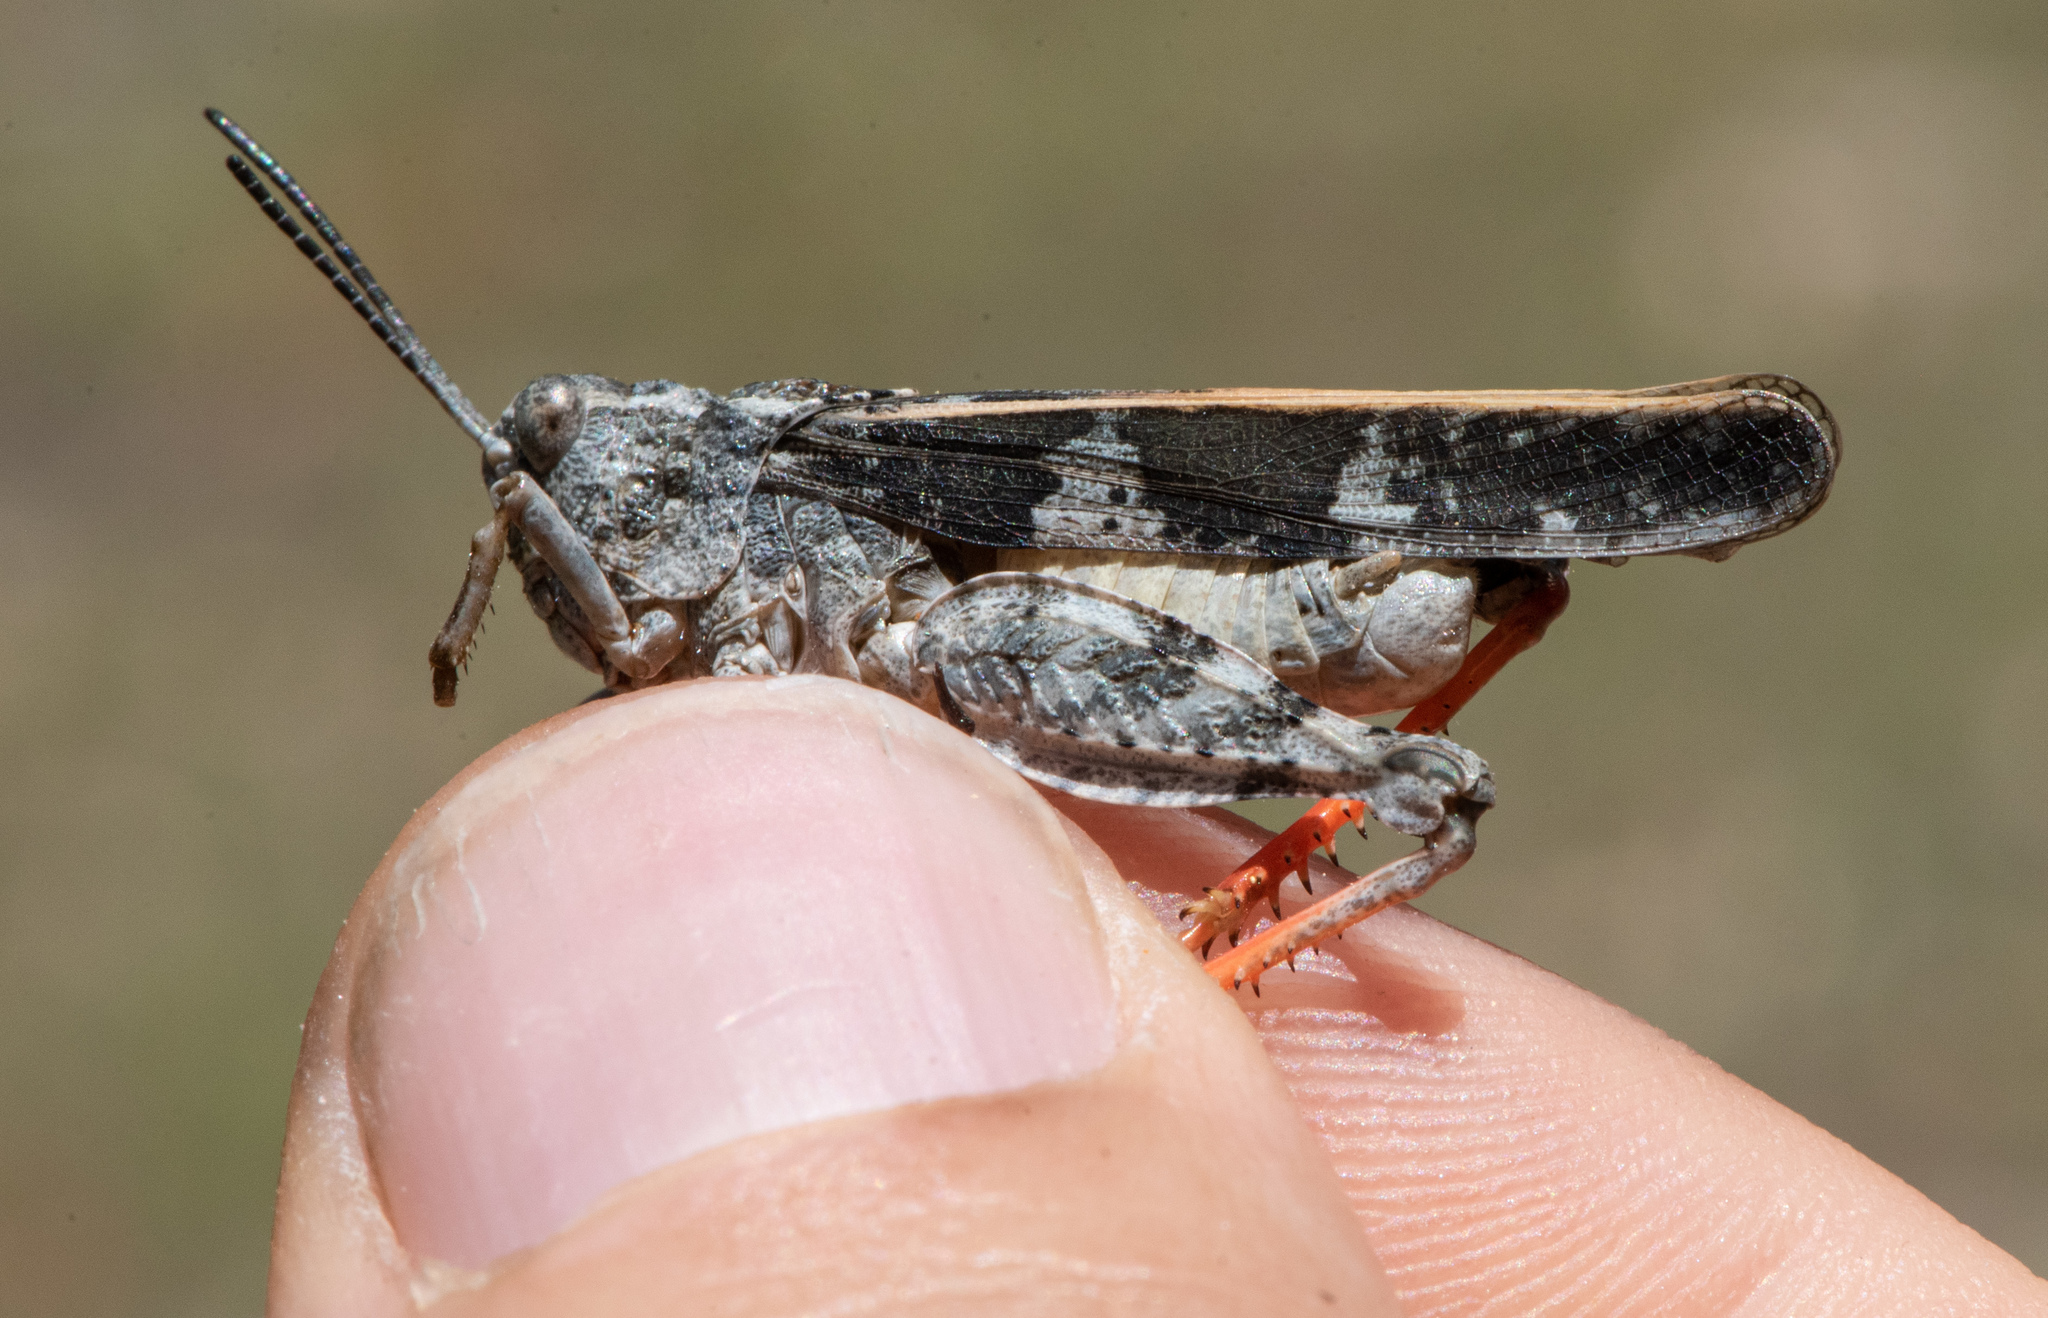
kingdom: Animalia
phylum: Arthropoda
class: Insecta
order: Orthoptera
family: Acrididae
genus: Agymnastus
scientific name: Agymnastus ingens
